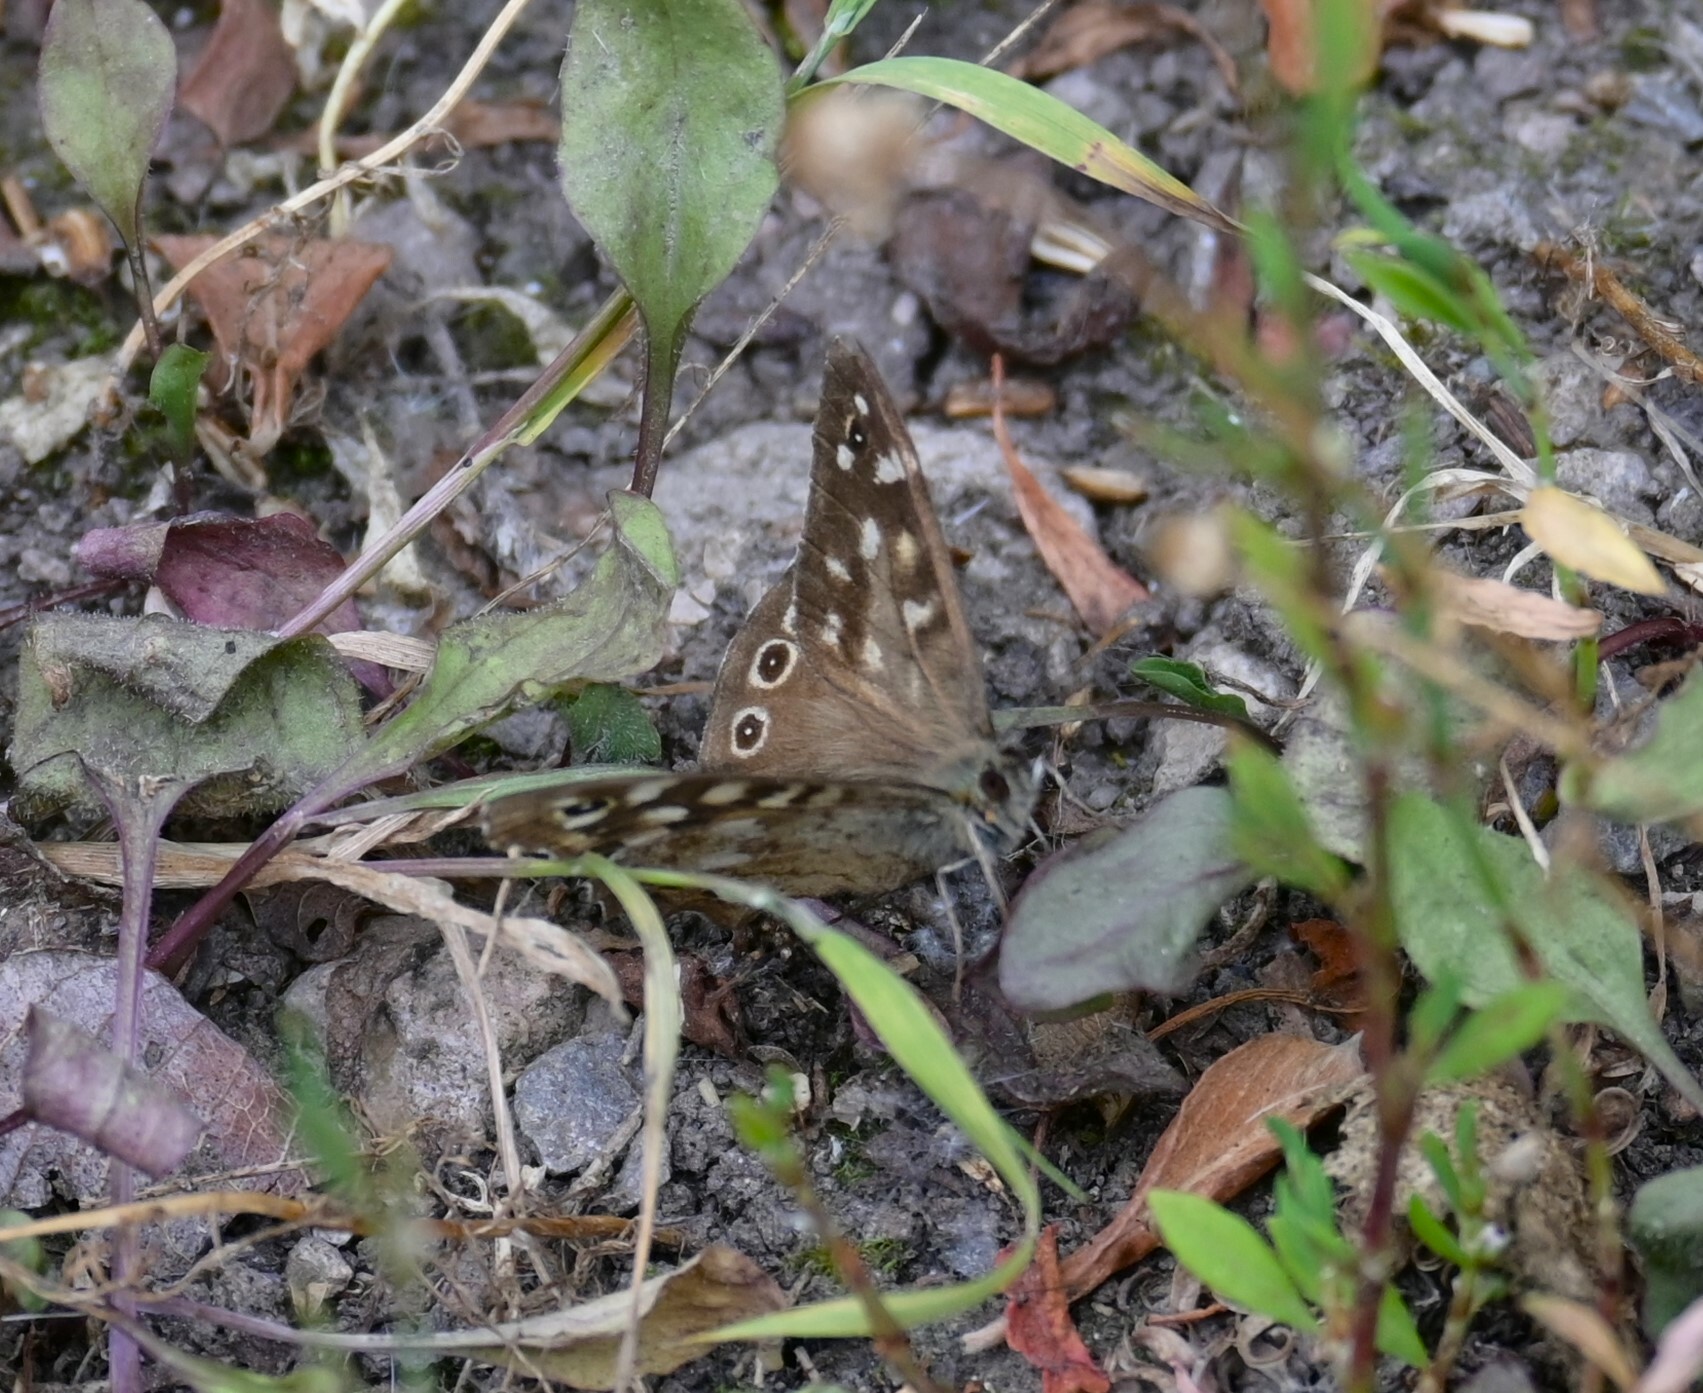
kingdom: Animalia
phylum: Arthropoda
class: Insecta
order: Lepidoptera
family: Nymphalidae
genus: Pararge
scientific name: Pararge aegeria
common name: Speckled wood
